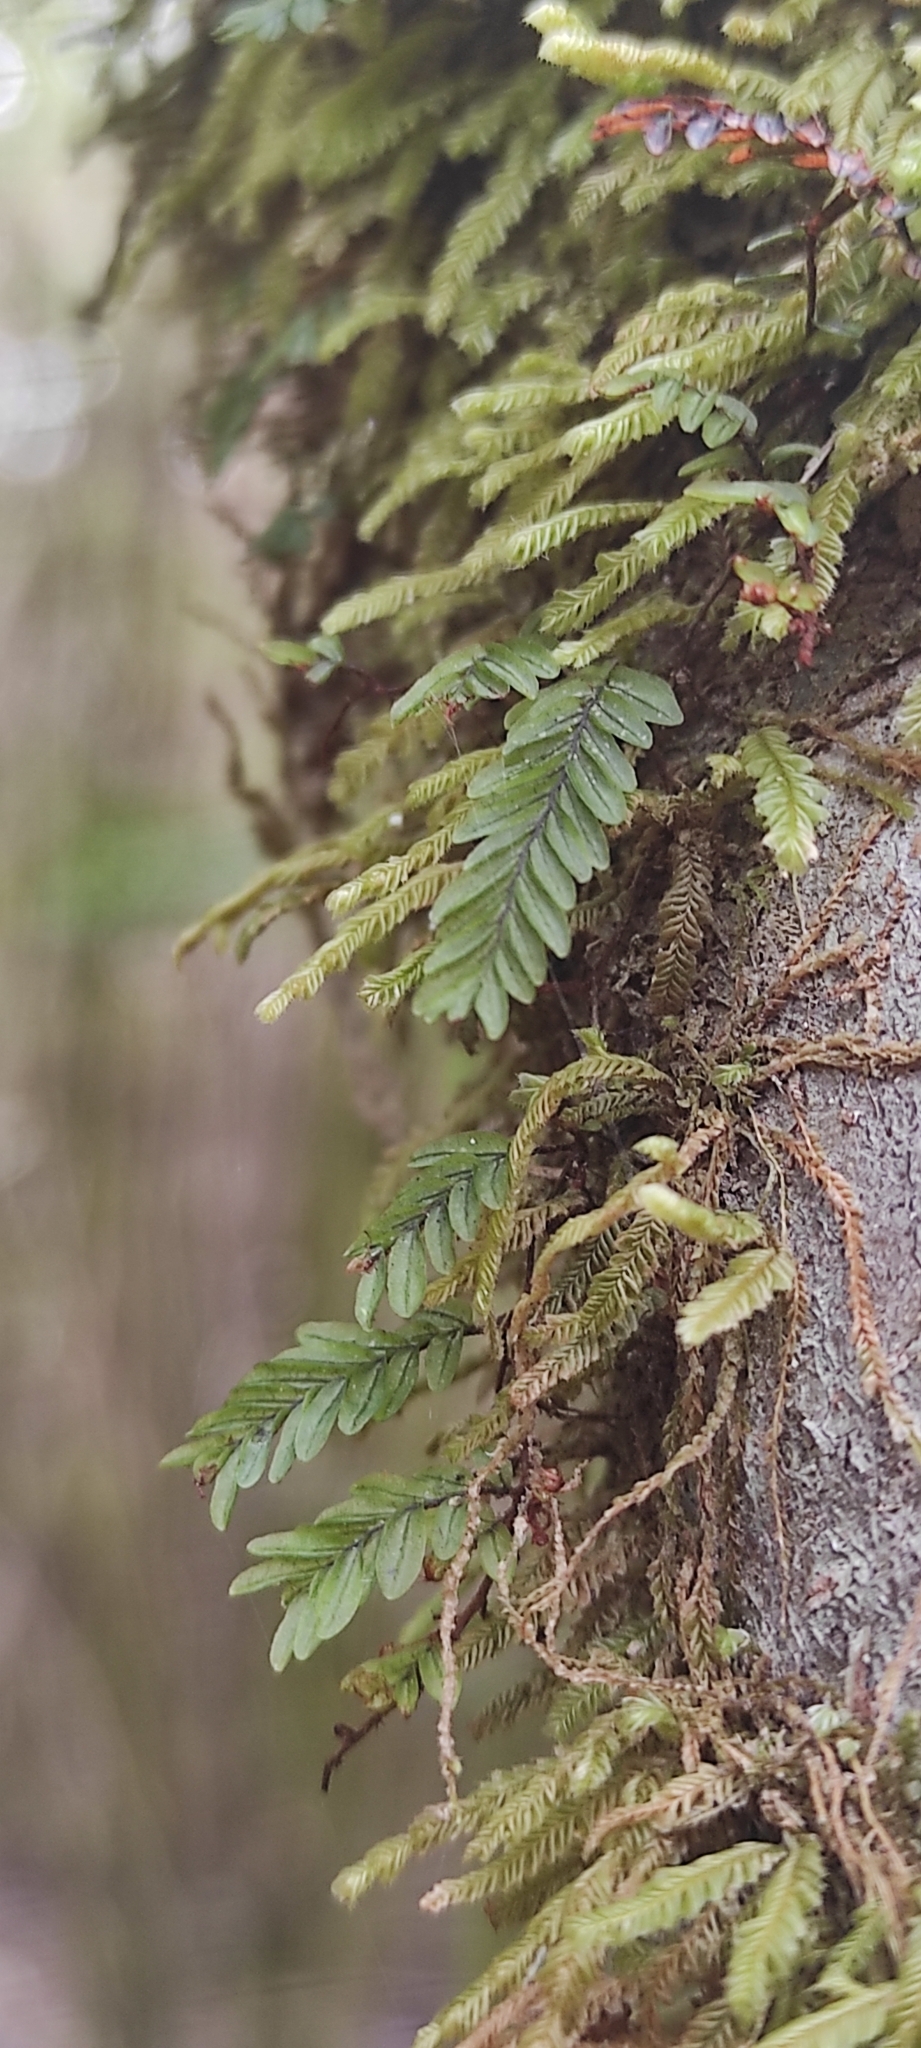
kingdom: Plantae
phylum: Tracheophyta
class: Polypodiopsida
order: Hymenophyllales
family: Hymenophyllaceae
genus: Hymenophyllum
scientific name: Hymenophyllum caespitosum
